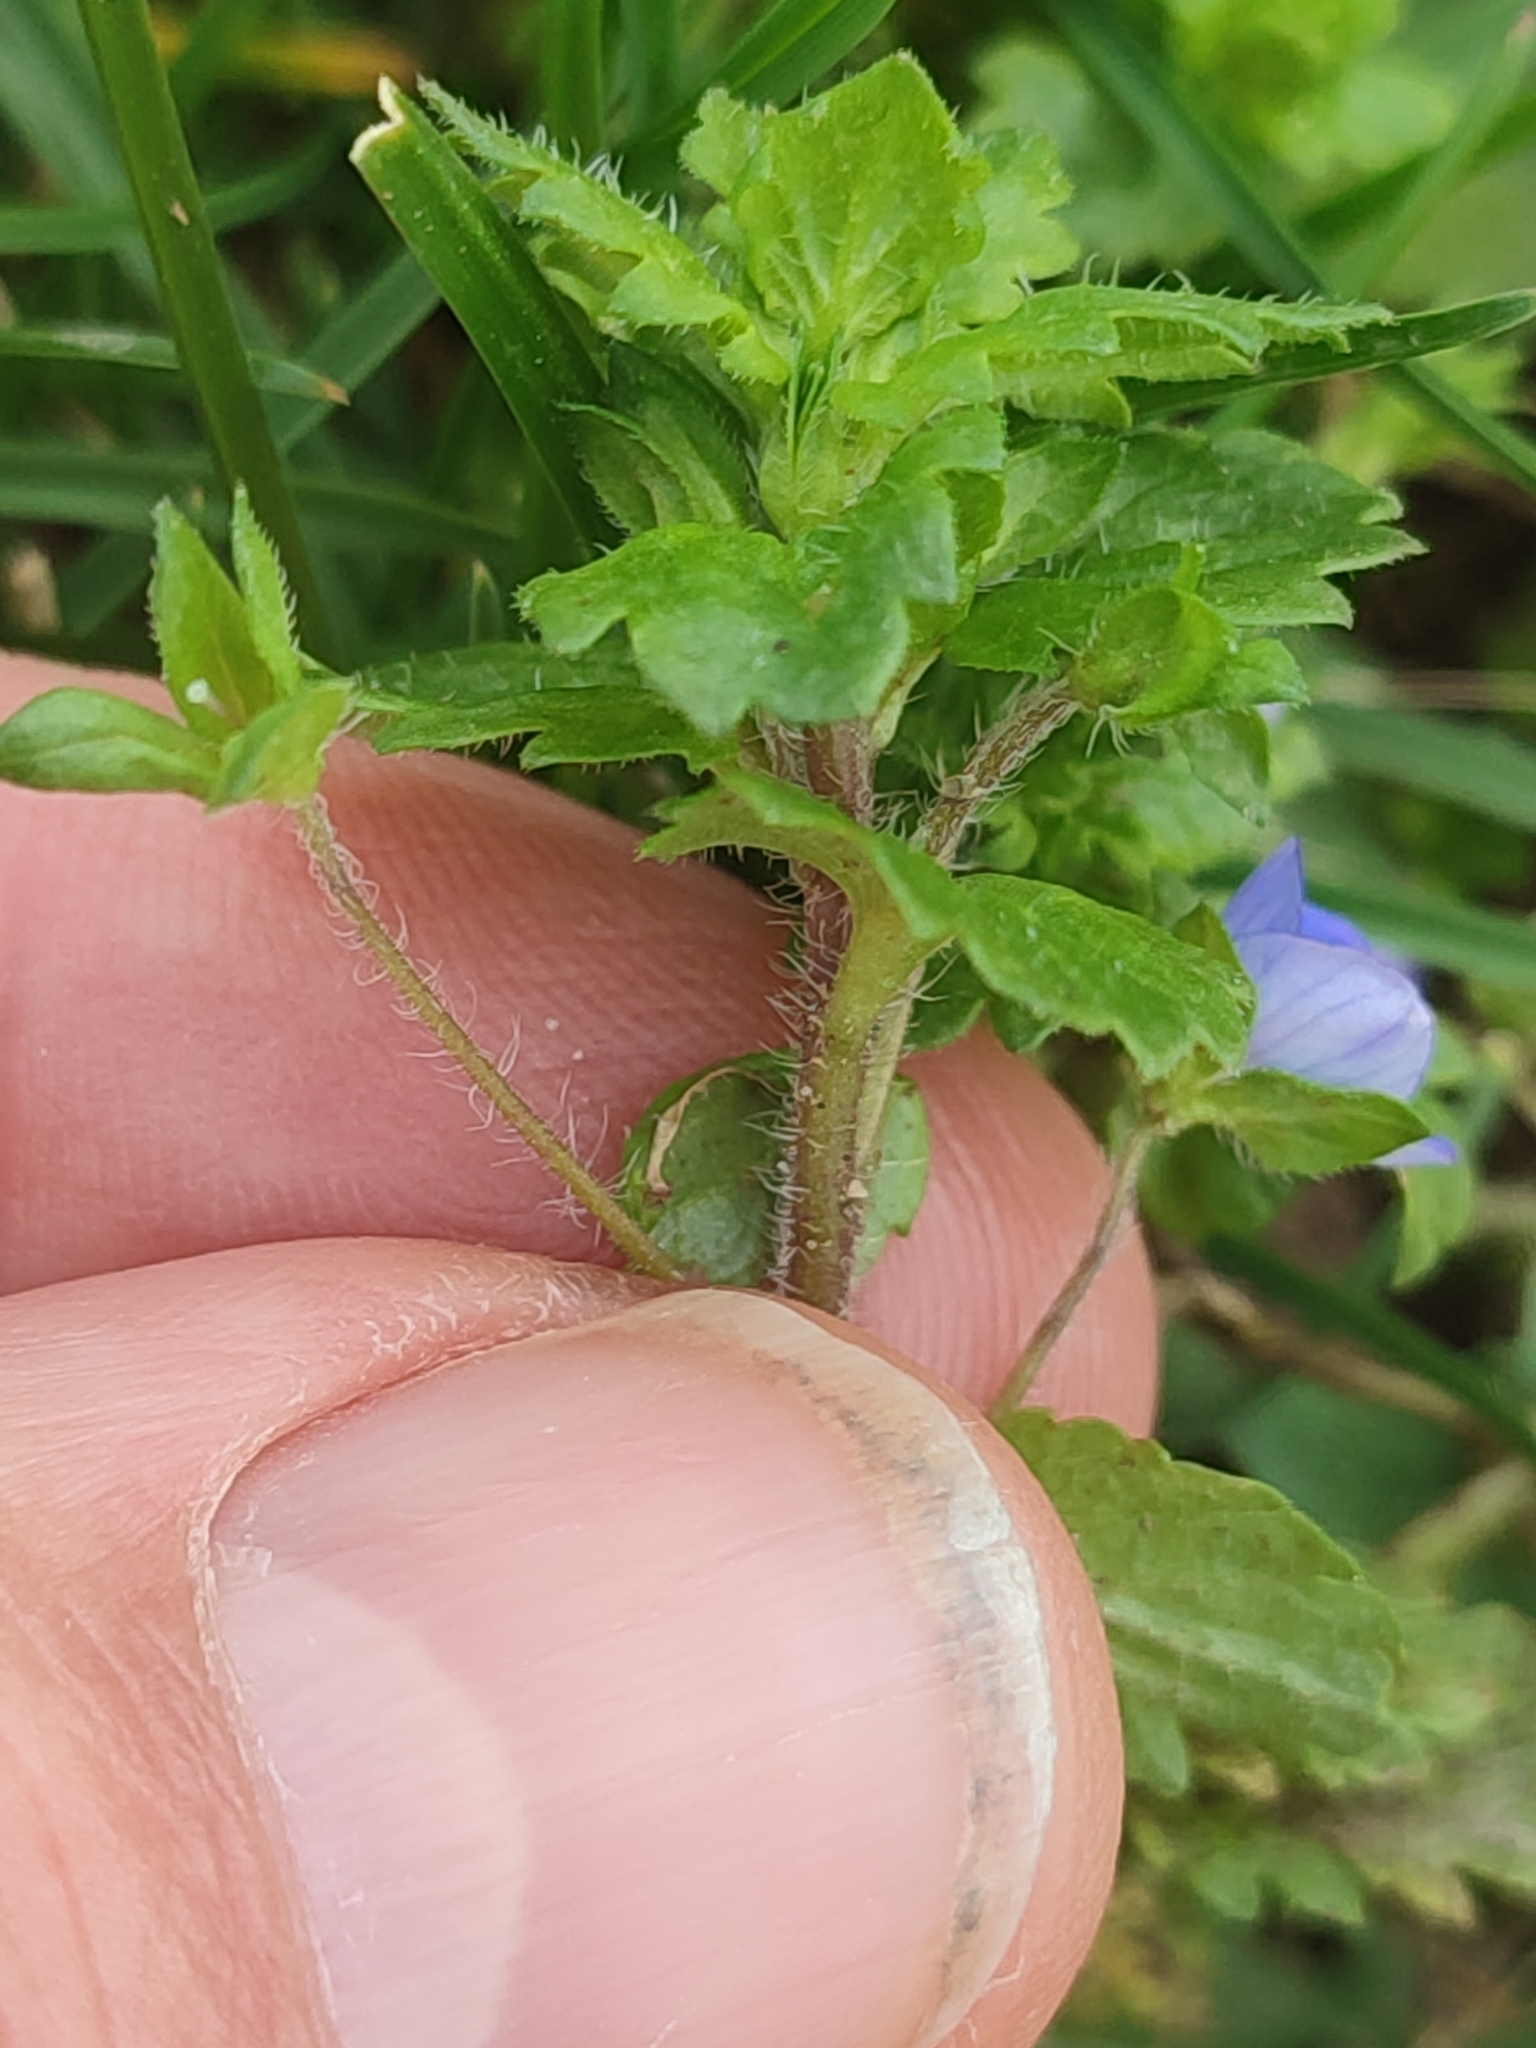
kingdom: Plantae
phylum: Tracheophyta
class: Magnoliopsida
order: Lamiales
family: Plantaginaceae
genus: Veronica
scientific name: Veronica persica
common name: Common field-speedwell
